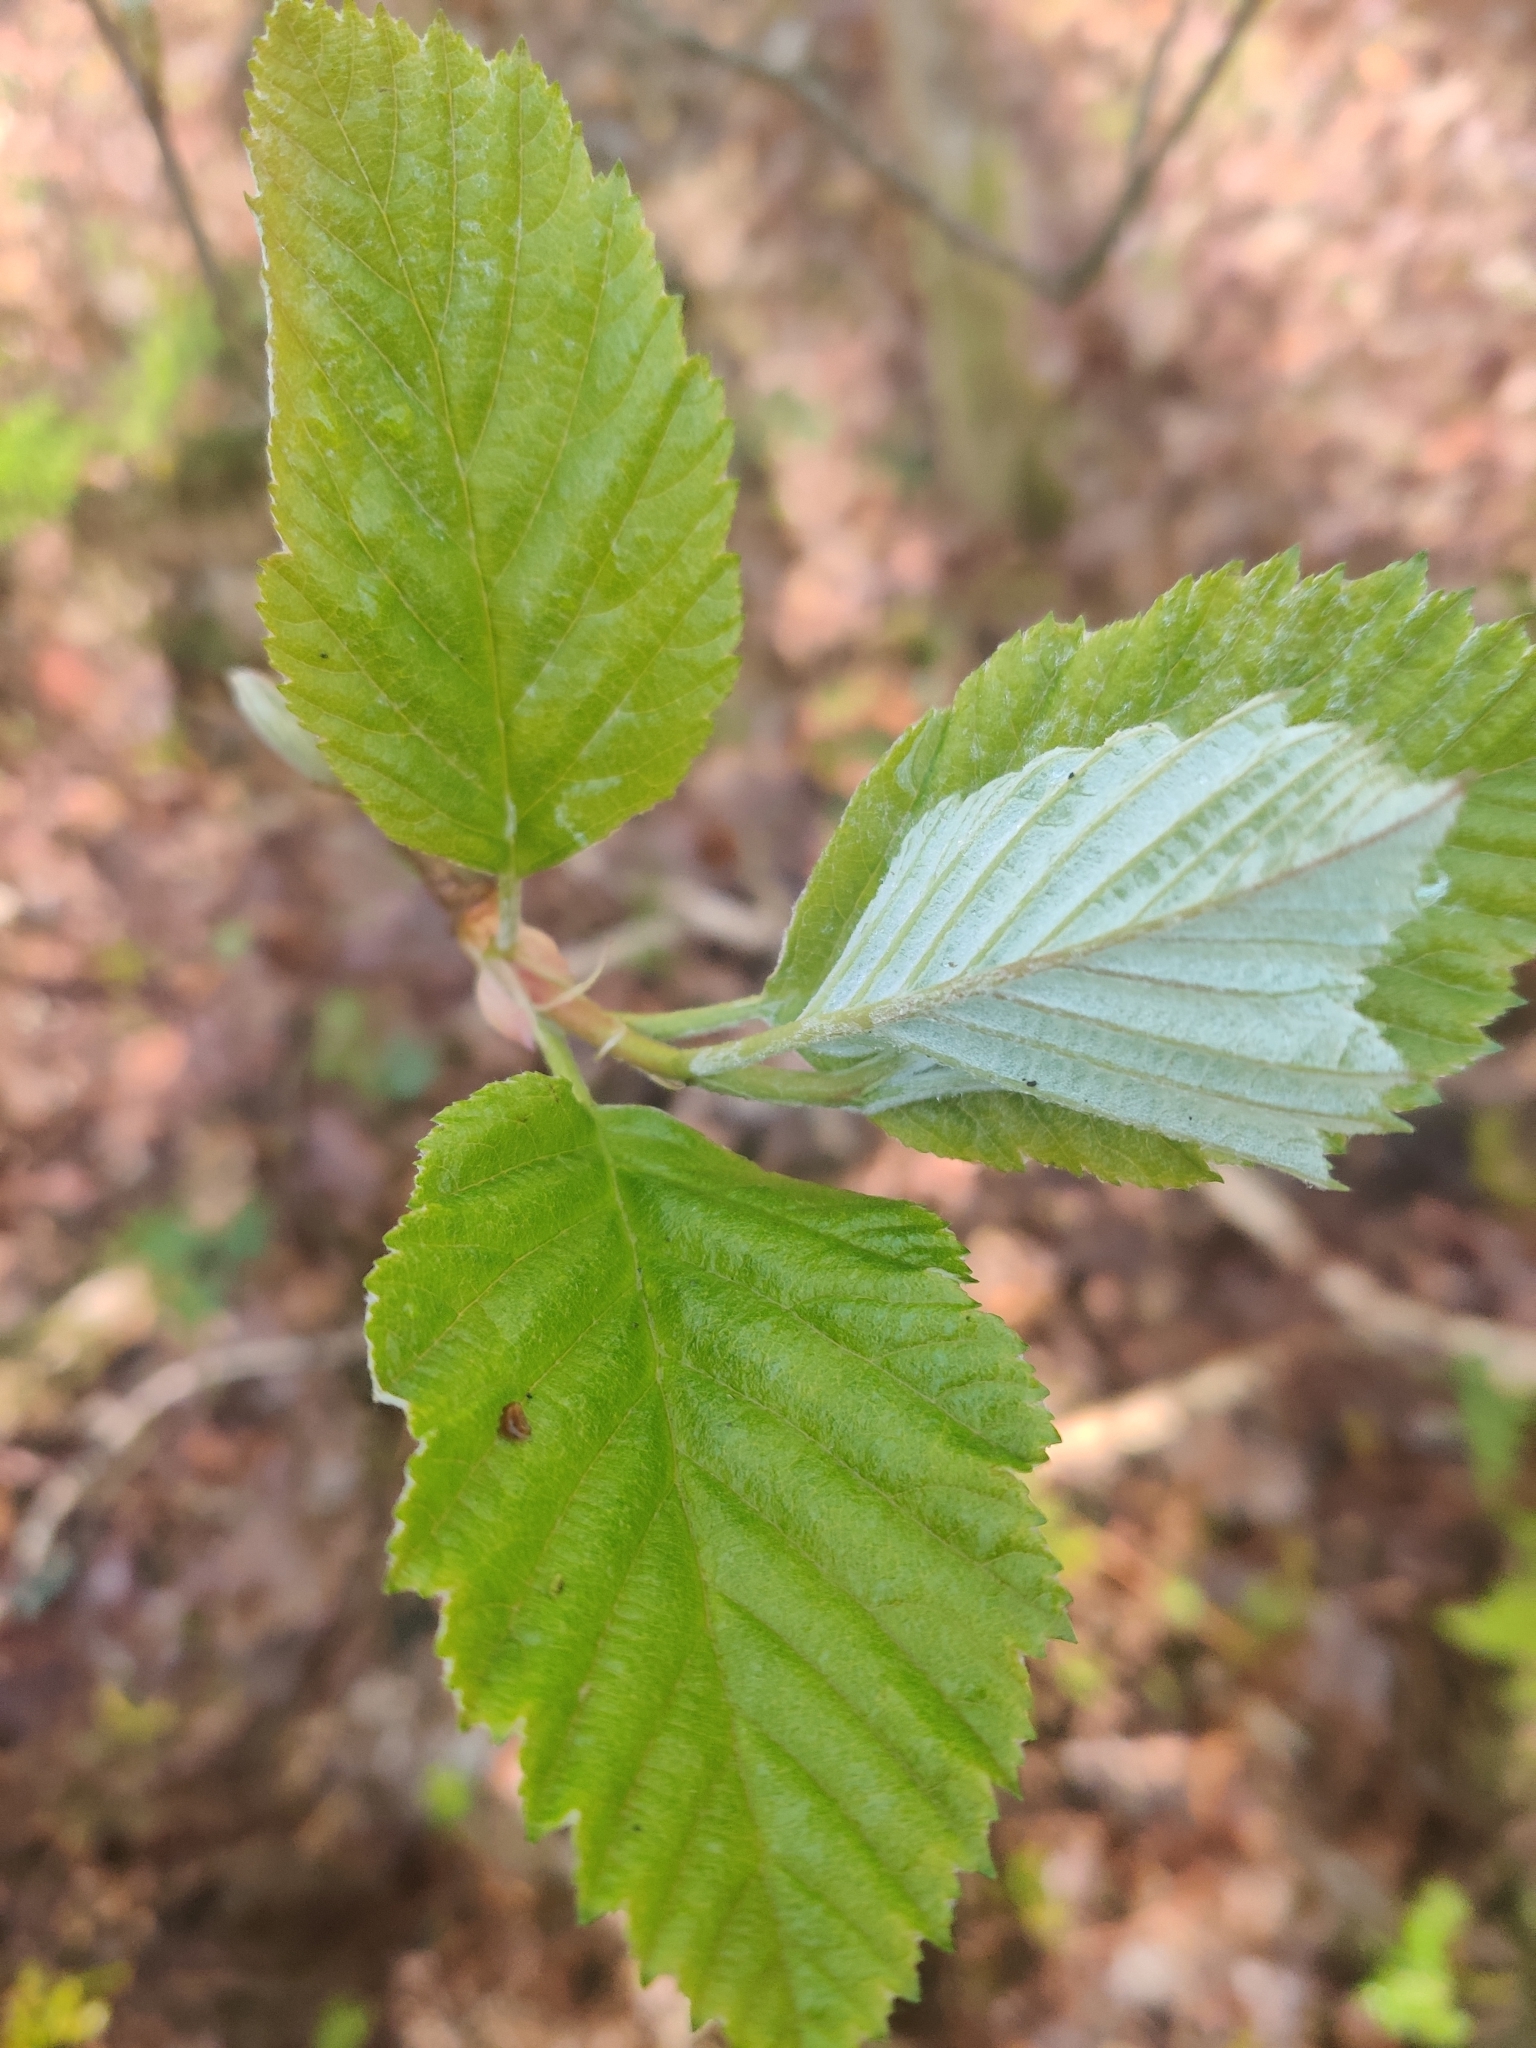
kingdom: Plantae
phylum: Tracheophyta
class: Magnoliopsida
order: Rosales
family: Rosaceae
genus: Aria
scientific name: Aria edulis
